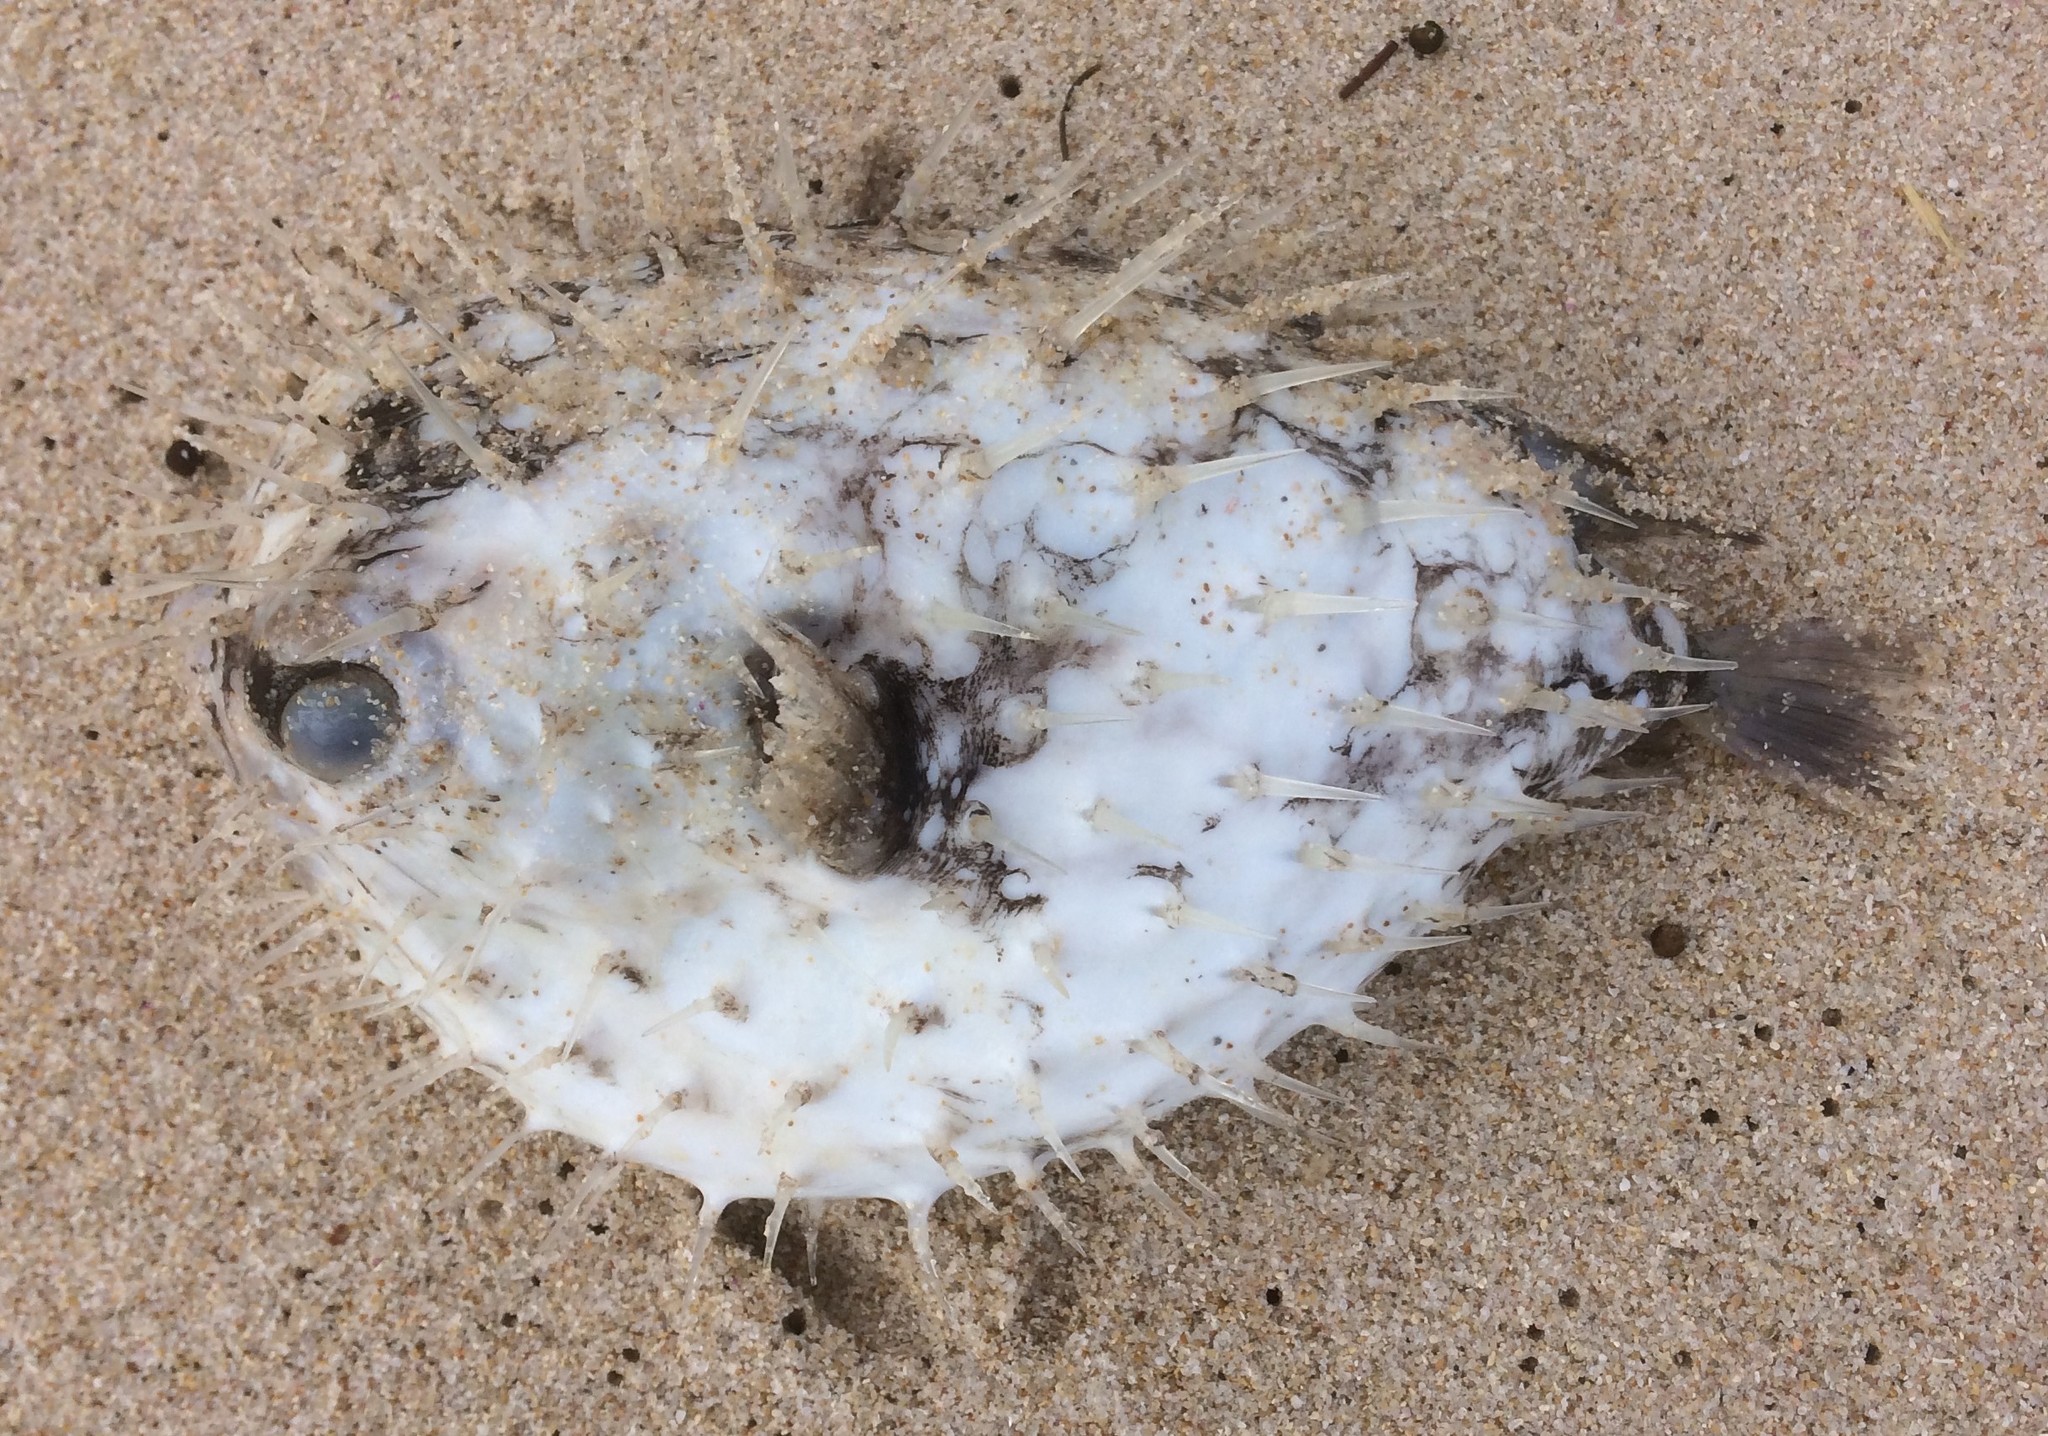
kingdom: Animalia
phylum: Chordata
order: Tetraodontiformes
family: Diodontidae
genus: Diodon
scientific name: Diodon nicthemerus
